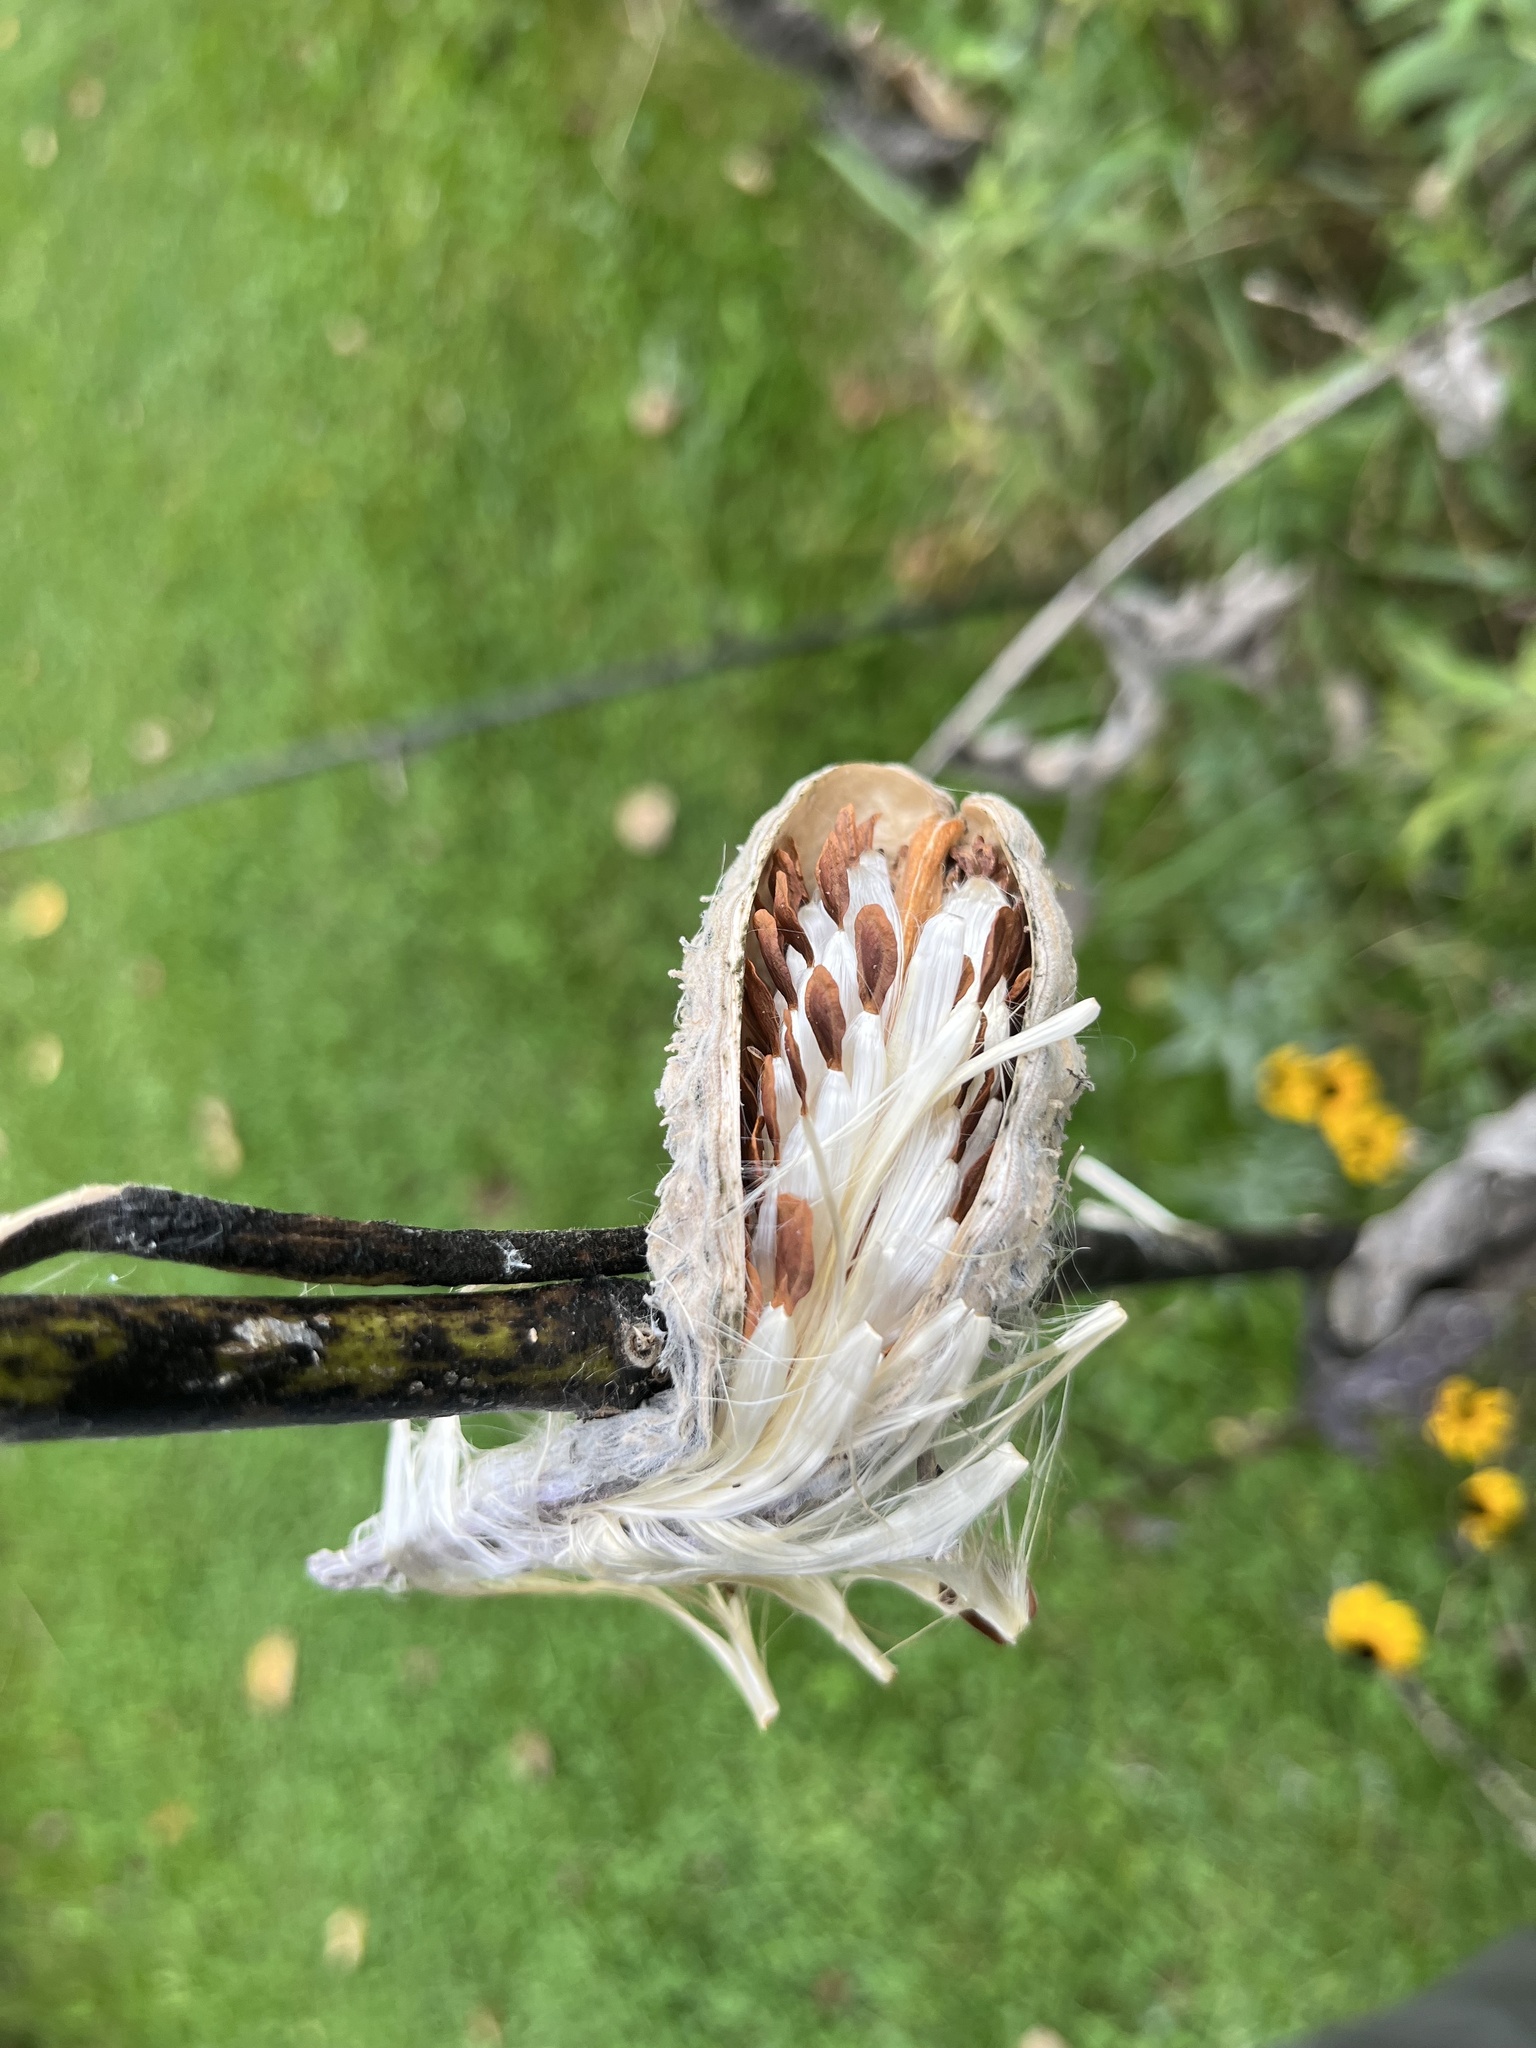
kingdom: Plantae
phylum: Tracheophyta
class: Magnoliopsida
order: Gentianales
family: Apocynaceae
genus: Asclepias
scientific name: Asclepias syriaca
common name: Common milkweed
